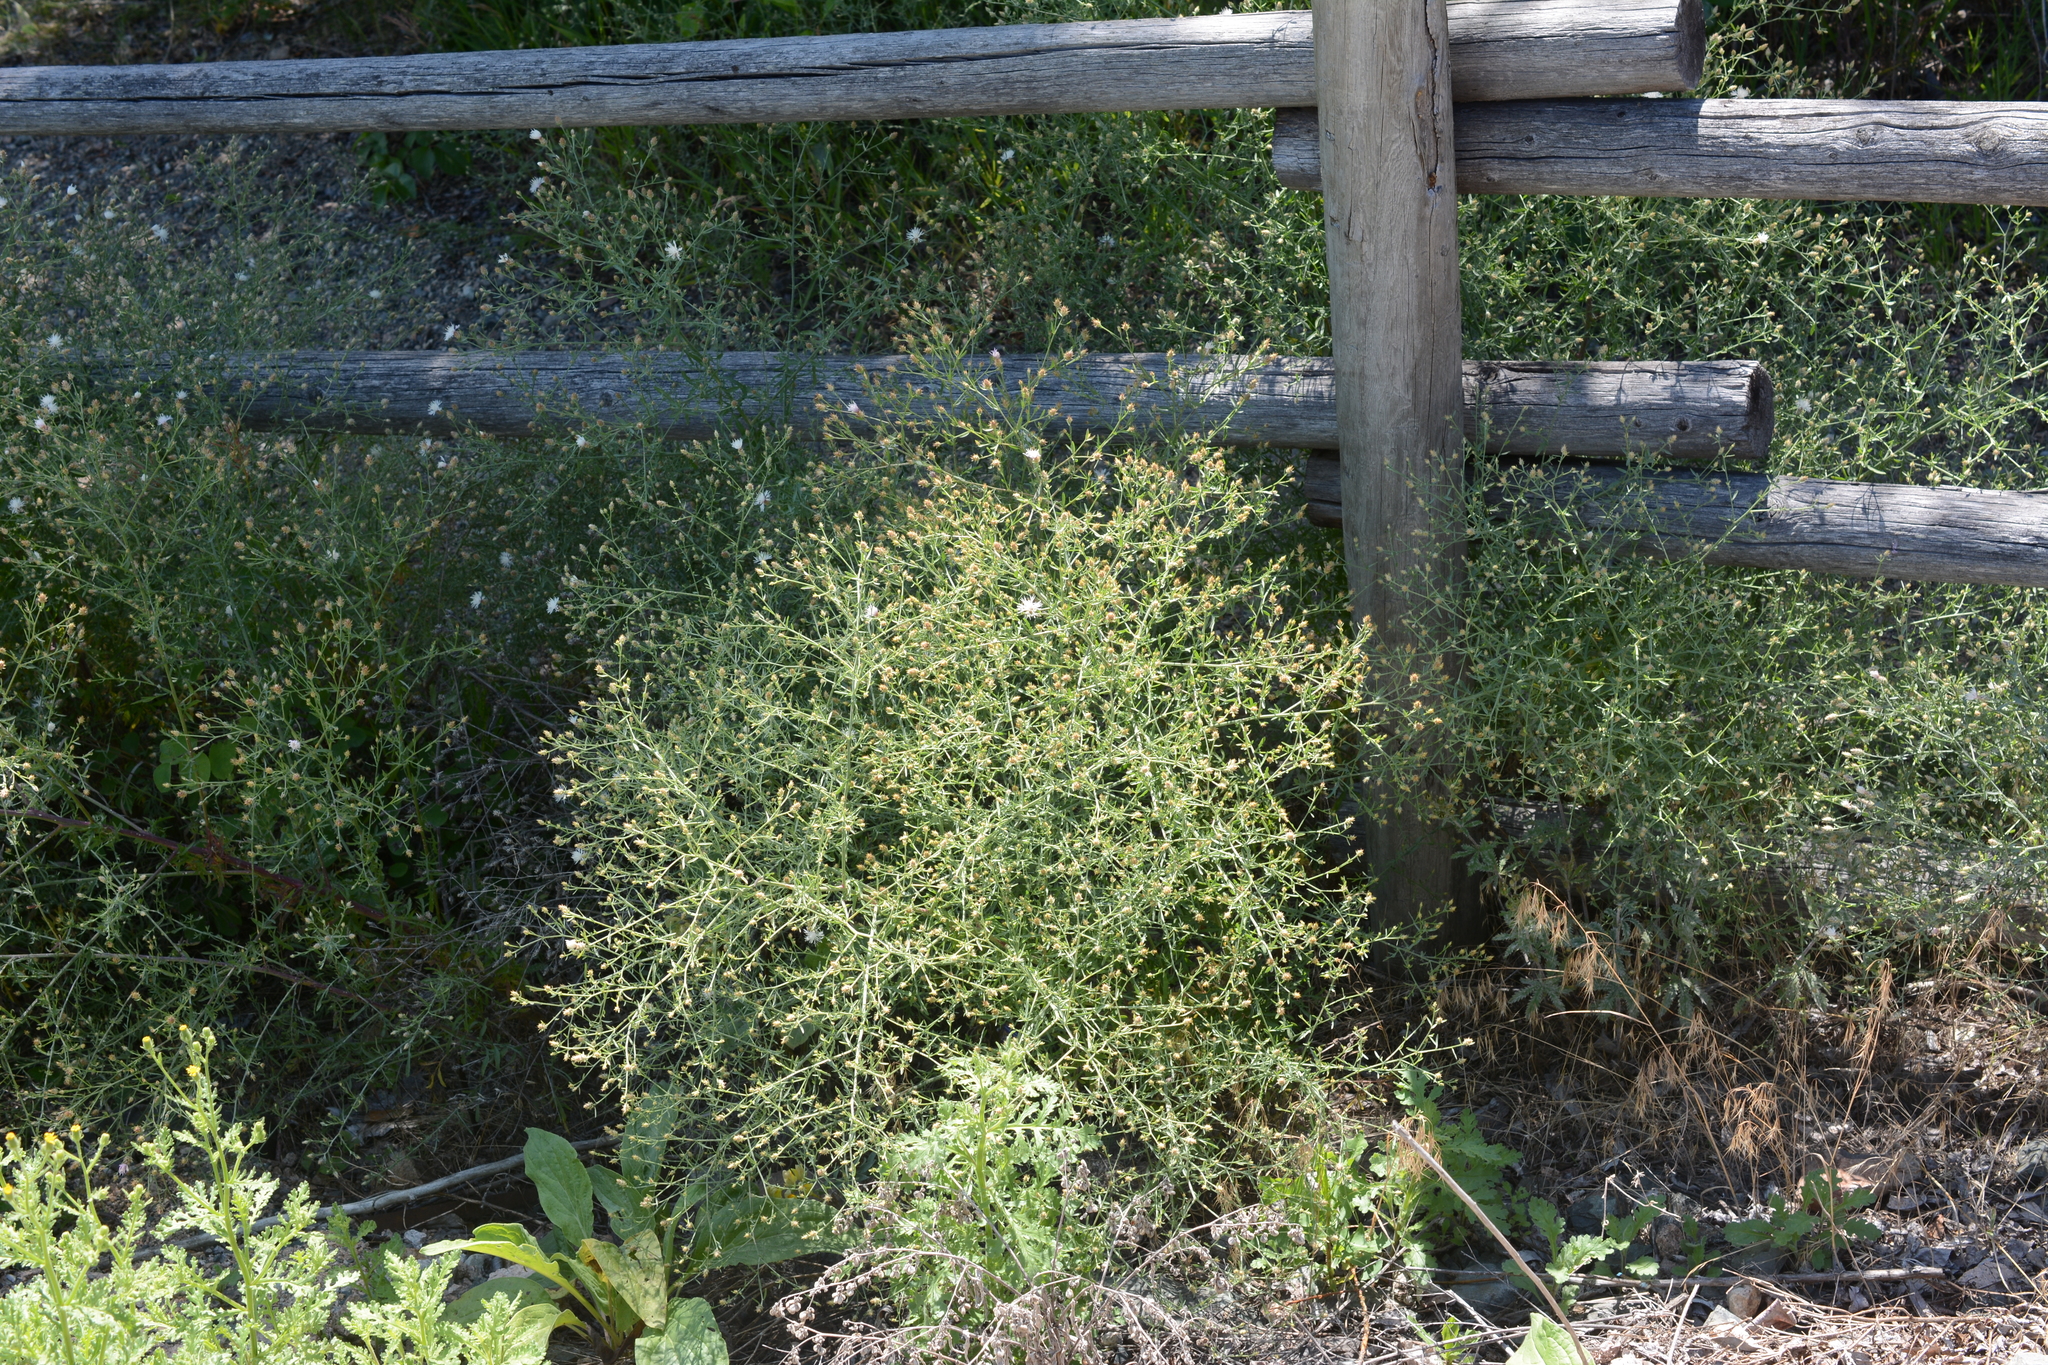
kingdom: Plantae
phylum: Tracheophyta
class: Magnoliopsida
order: Asterales
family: Asteraceae
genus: Centaurea
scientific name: Centaurea diffusa
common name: Diffuse knapweed
